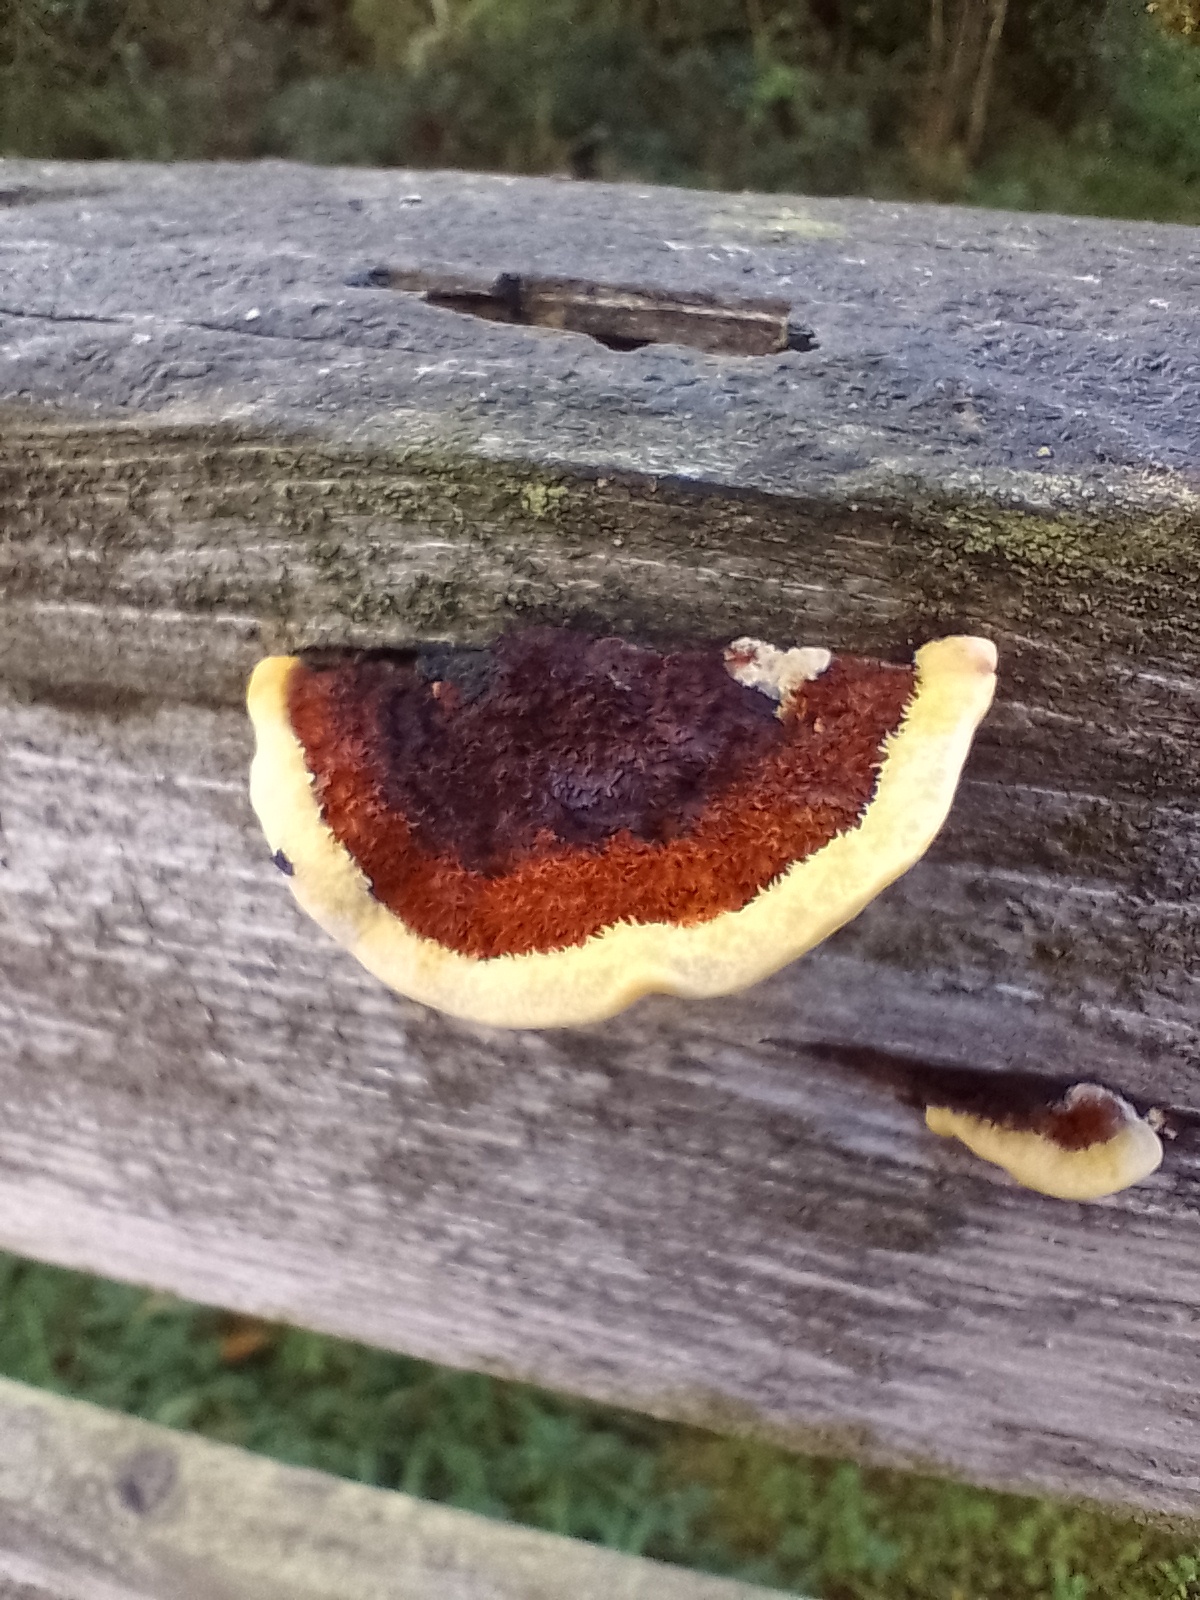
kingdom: Fungi
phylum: Basidiomycota
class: Agaricomycetes
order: Gloeophyllales
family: Gloeophyllaceae
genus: Gloeophyllum
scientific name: Gloeophyllum sepiarium
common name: Conifer mazegill
